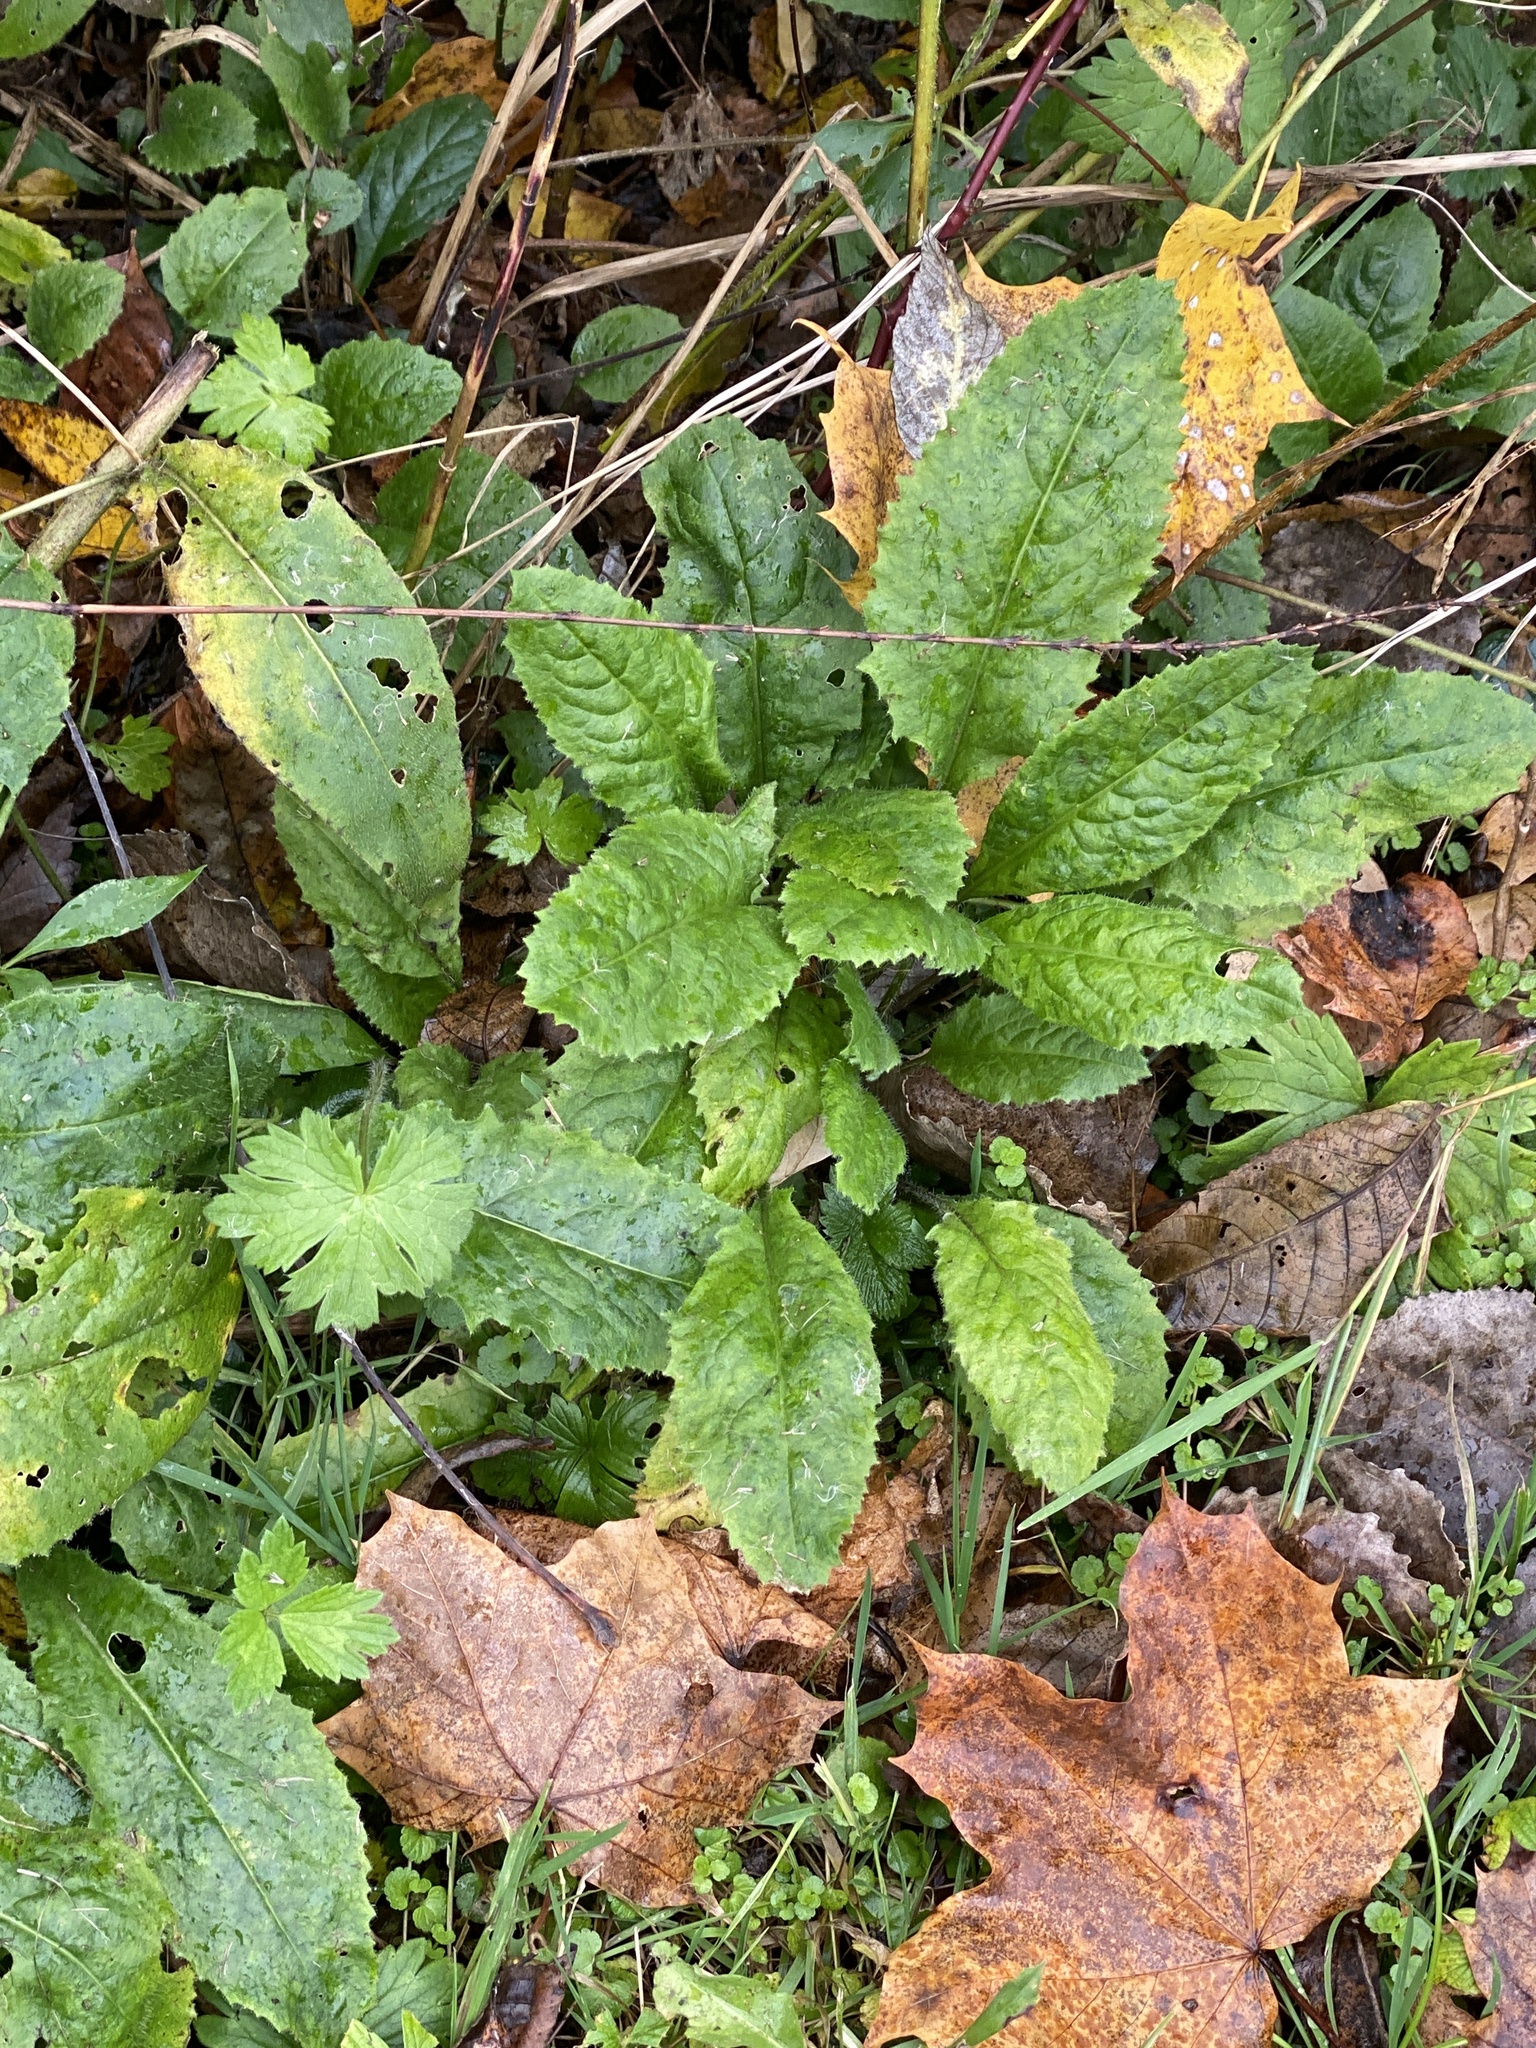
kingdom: Plantae
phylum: Tracheophyta
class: Magnoliopsida
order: Brassicales
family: Brassicaceae
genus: Hesperis
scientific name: Hesperis matronalis
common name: Dame's-violet
